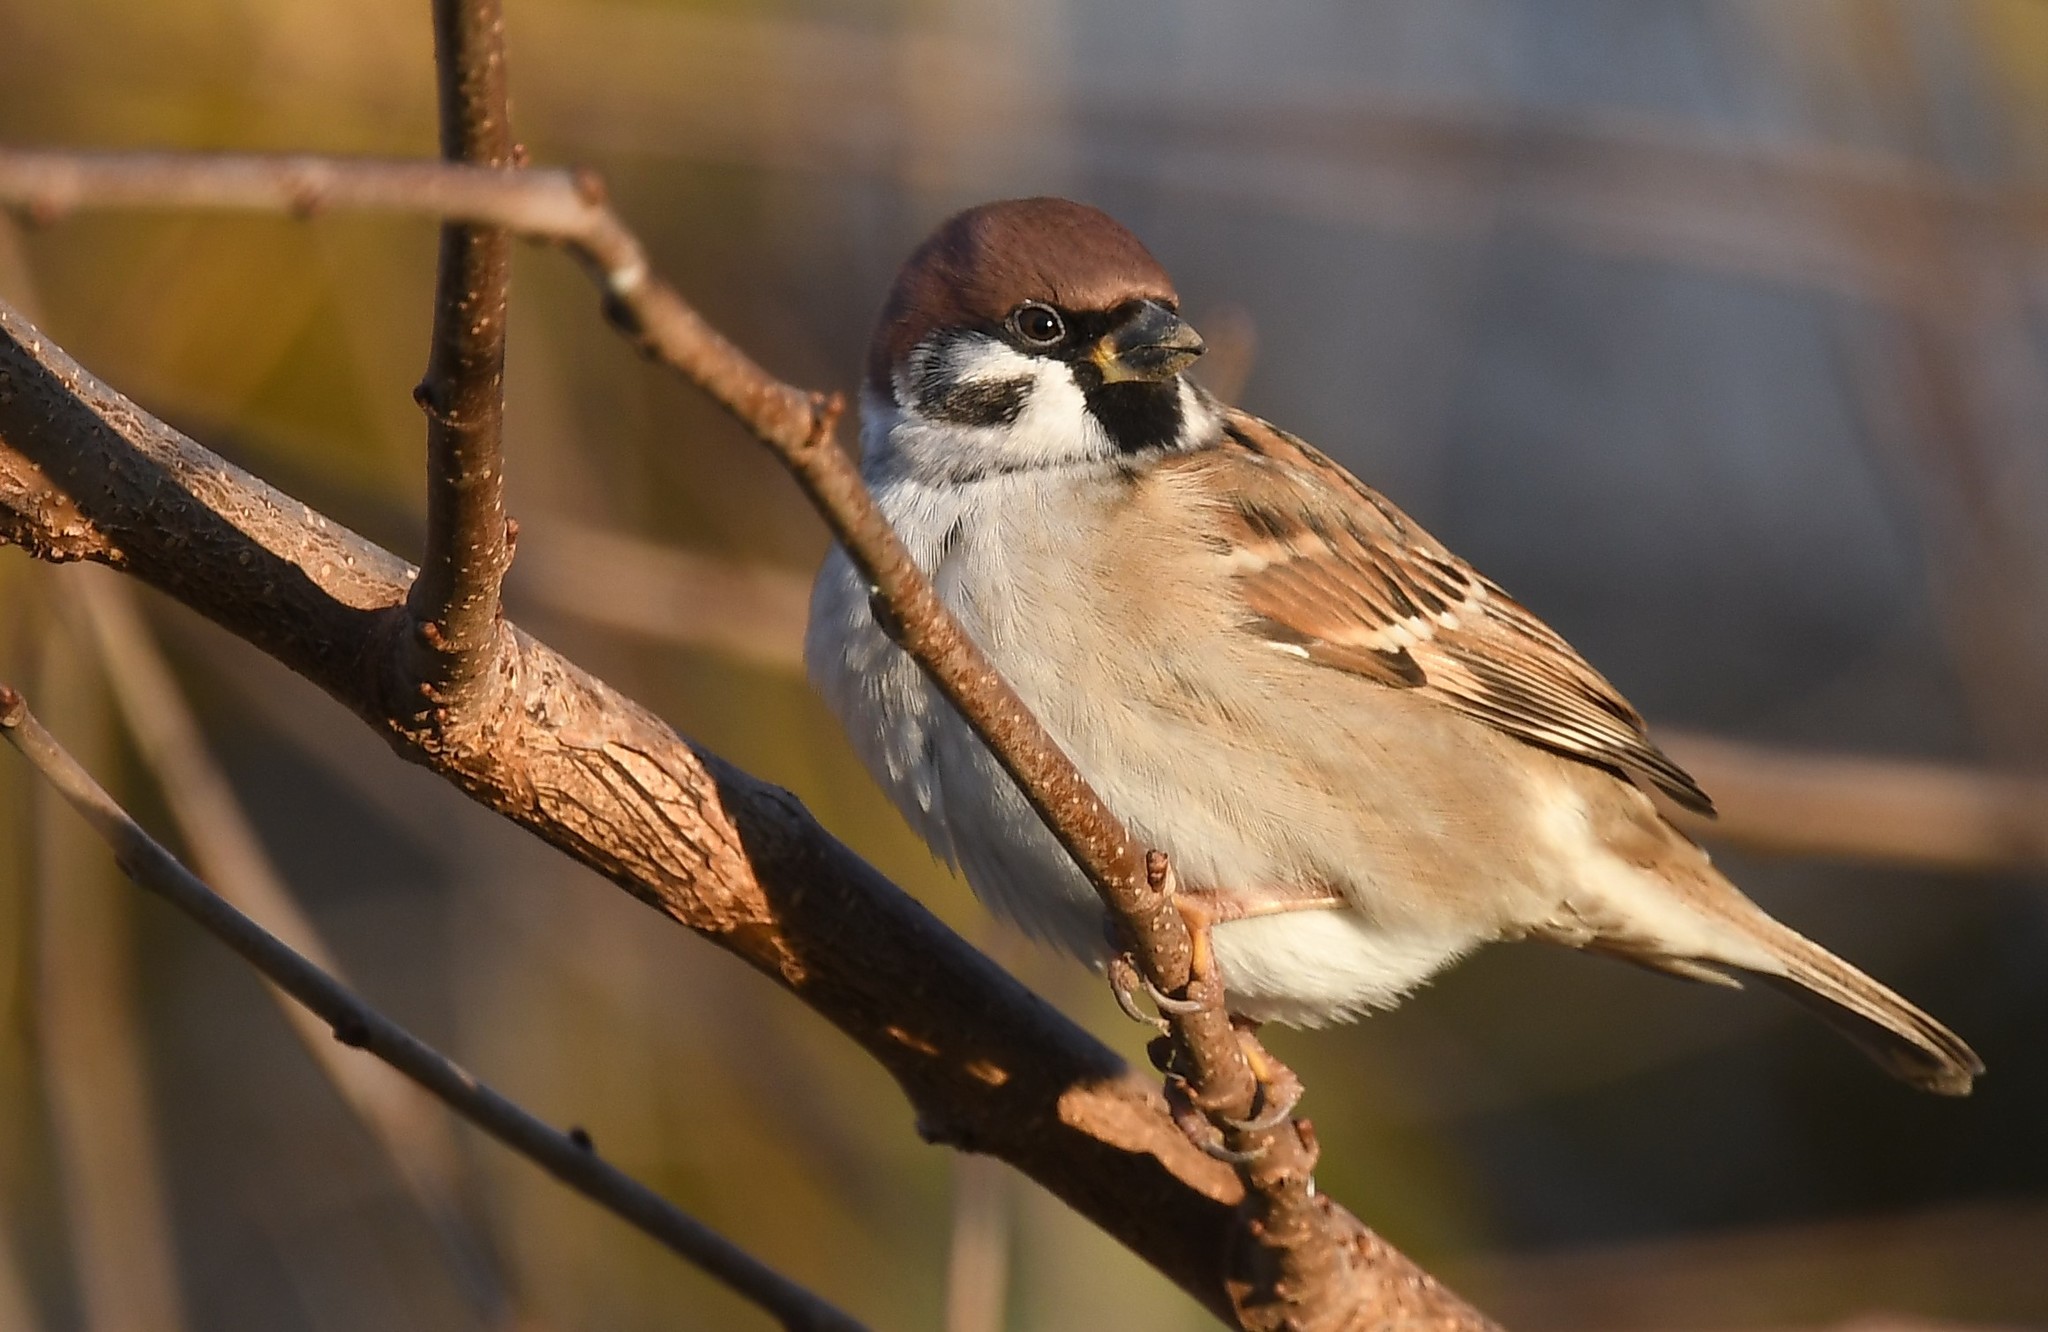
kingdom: Animalia
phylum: Chordata
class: Aves
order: Passeriformes
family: Passeridae
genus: Passer
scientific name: Passer montanus
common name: Eurasian tree sparrow
